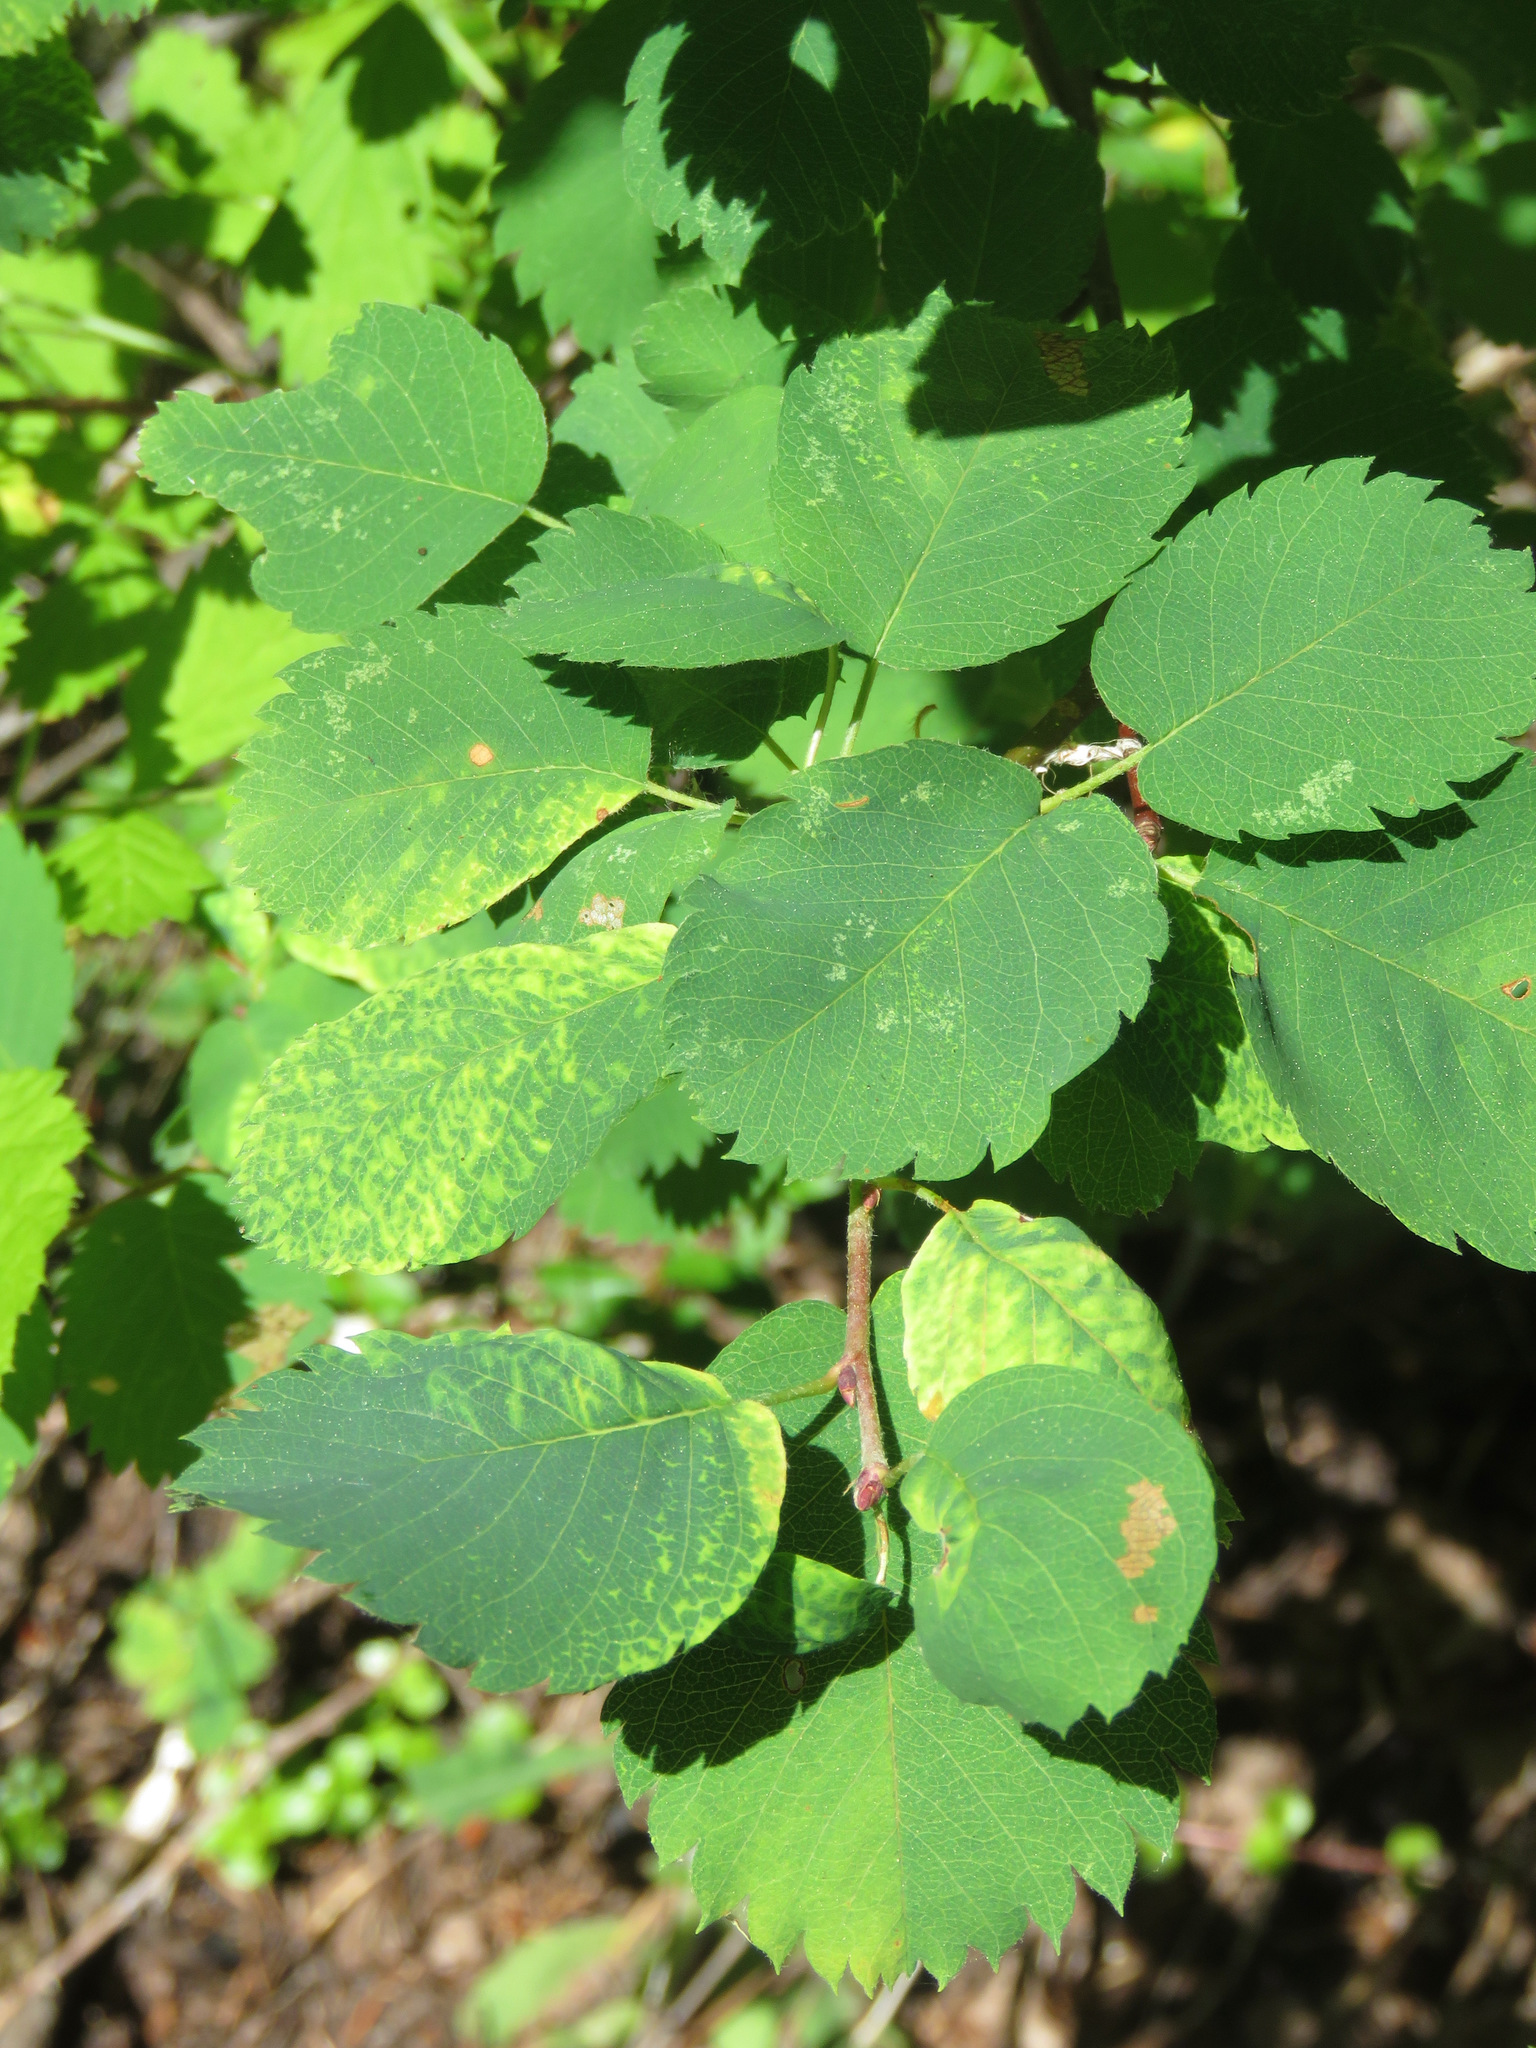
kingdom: Plantae
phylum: Tracheophyta
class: Magnoliopsida
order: Rosales
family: Rosaceae
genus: Amelanchier
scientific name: Amelanchier alnifolia
